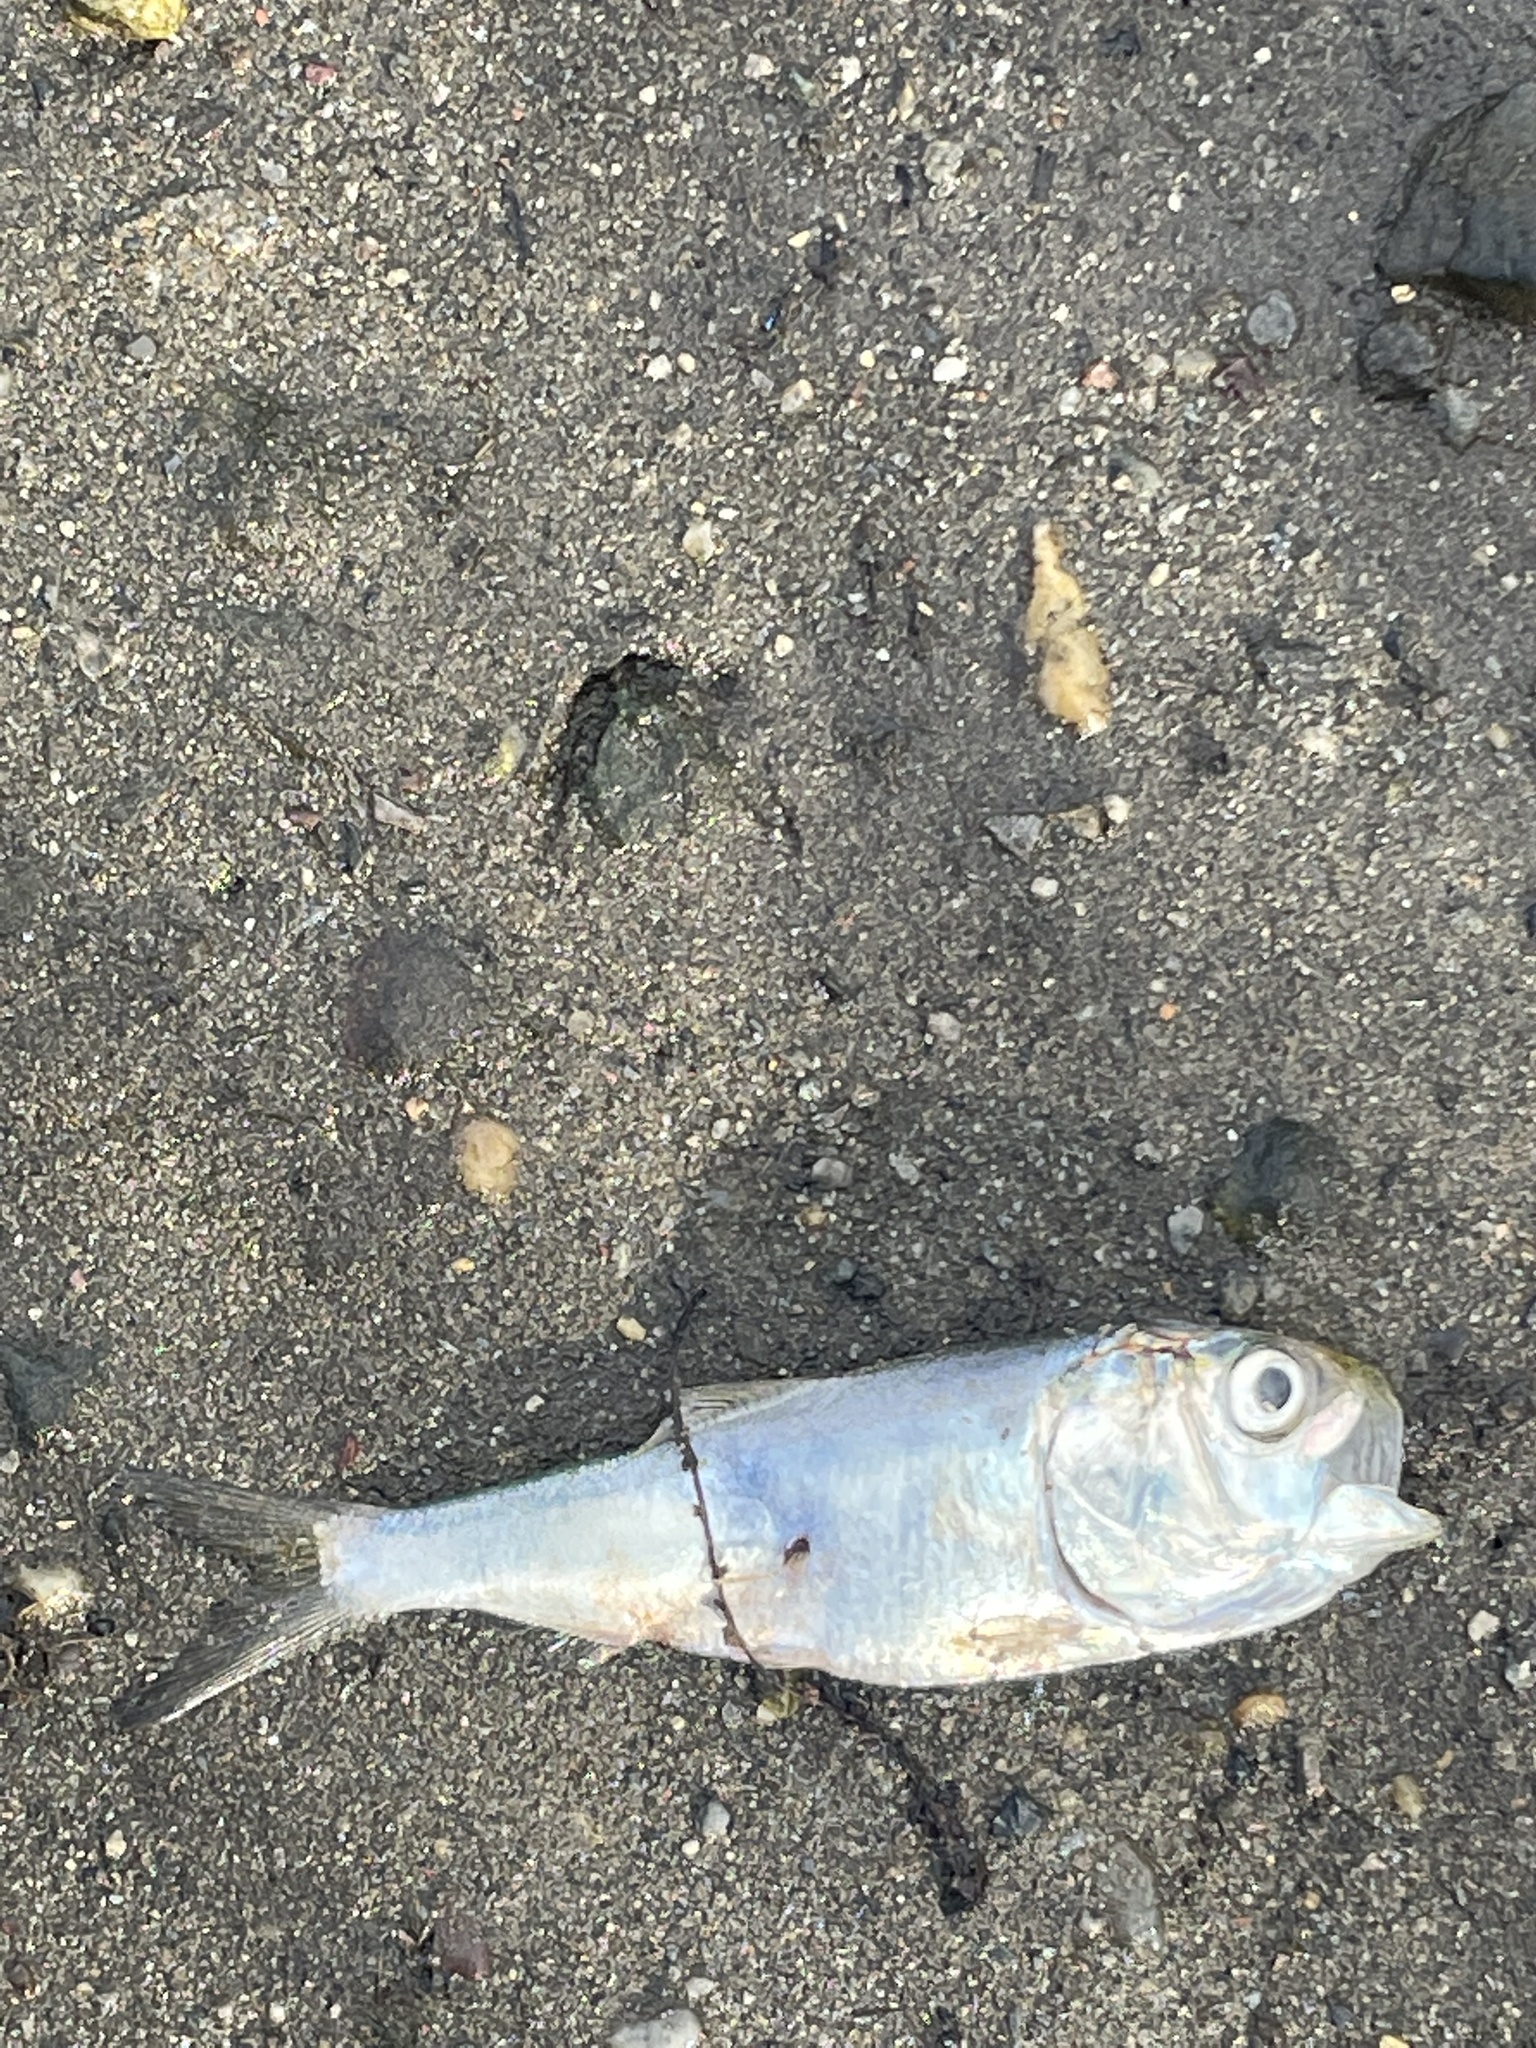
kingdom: Animalia
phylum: Chordata
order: Clupeiformes
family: Clupeidae
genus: Brevoortia
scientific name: Brevoortia tyrannus
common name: Atlantic menhaden
